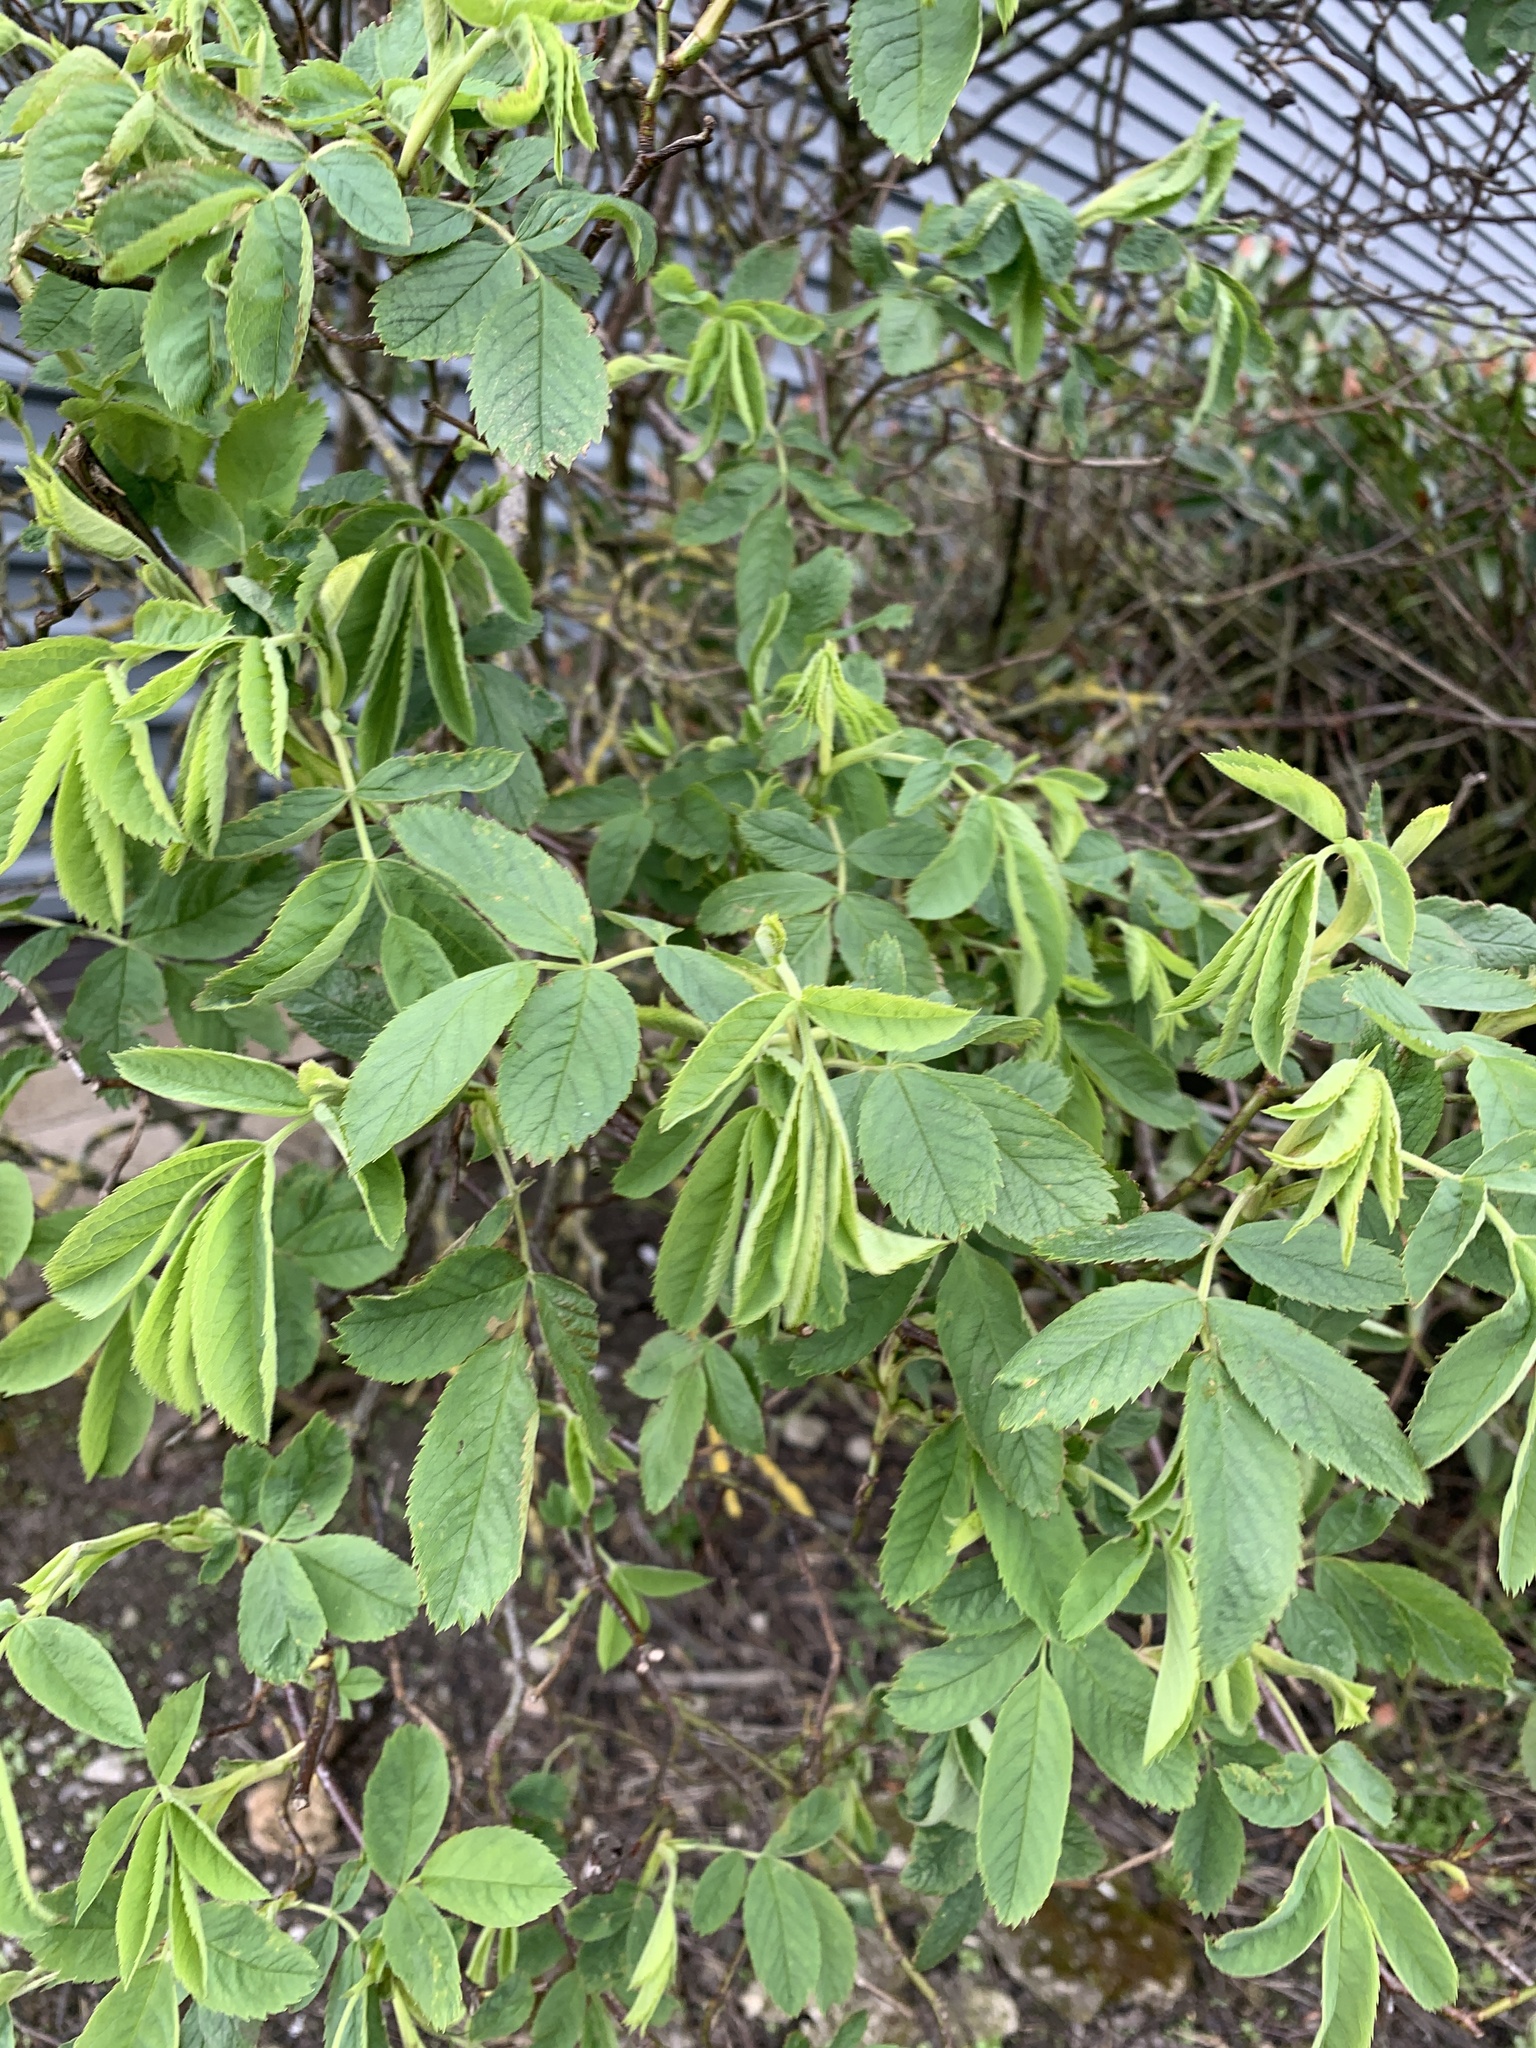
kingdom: Plantae
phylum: Tracheophyta
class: Magnoliopsida
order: Rosales
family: Rosaceae
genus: Rosa
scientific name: Rosa canina
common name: Dog rose
